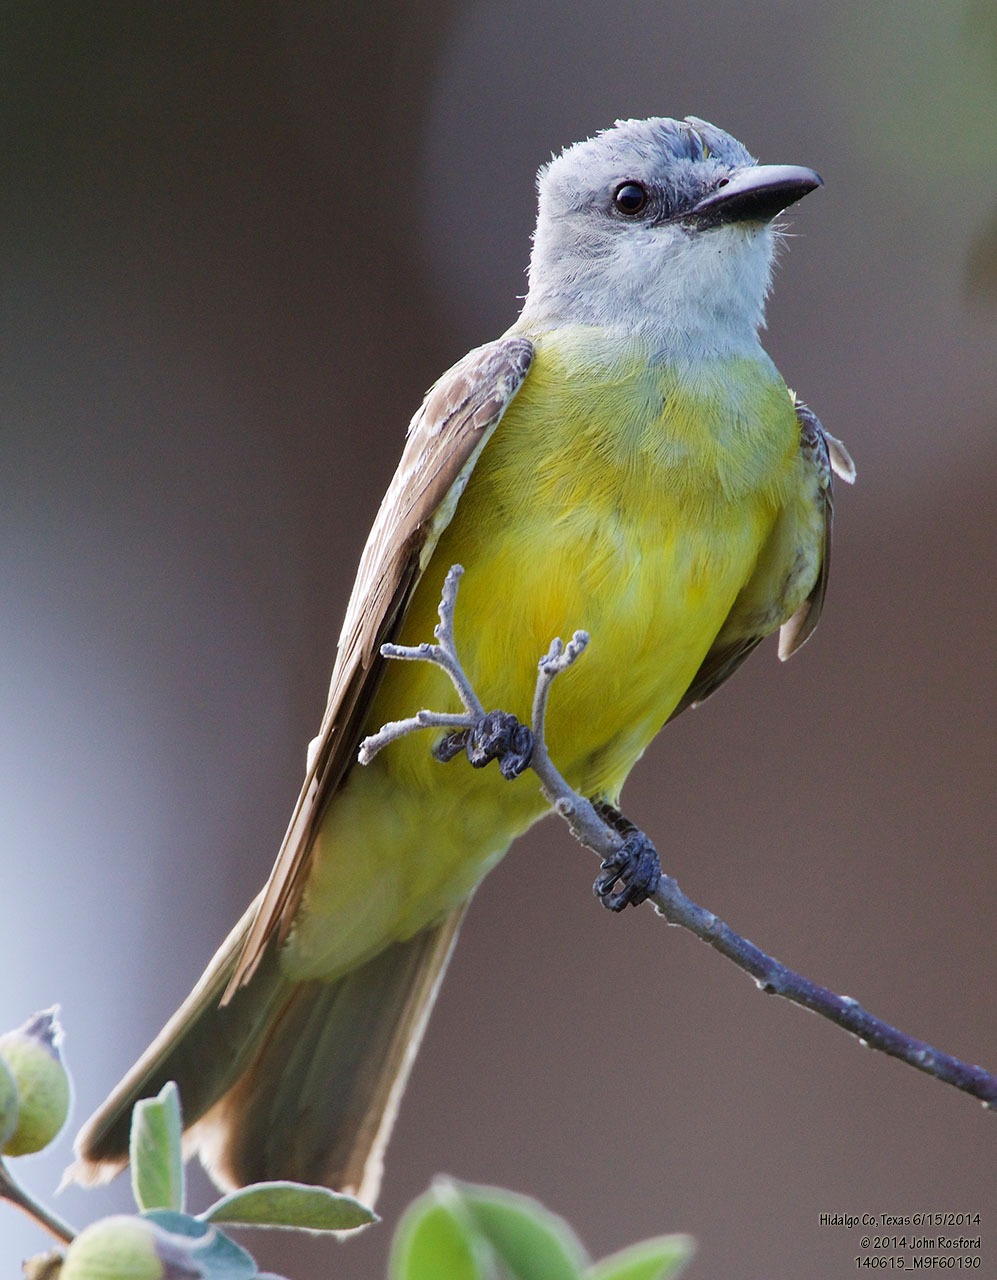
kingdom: Animalia
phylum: Chordata
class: Aves
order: Passeriformes
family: Tyrannidae
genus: Tyrannus
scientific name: Tyrannus couchii
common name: Couch's kingbird
